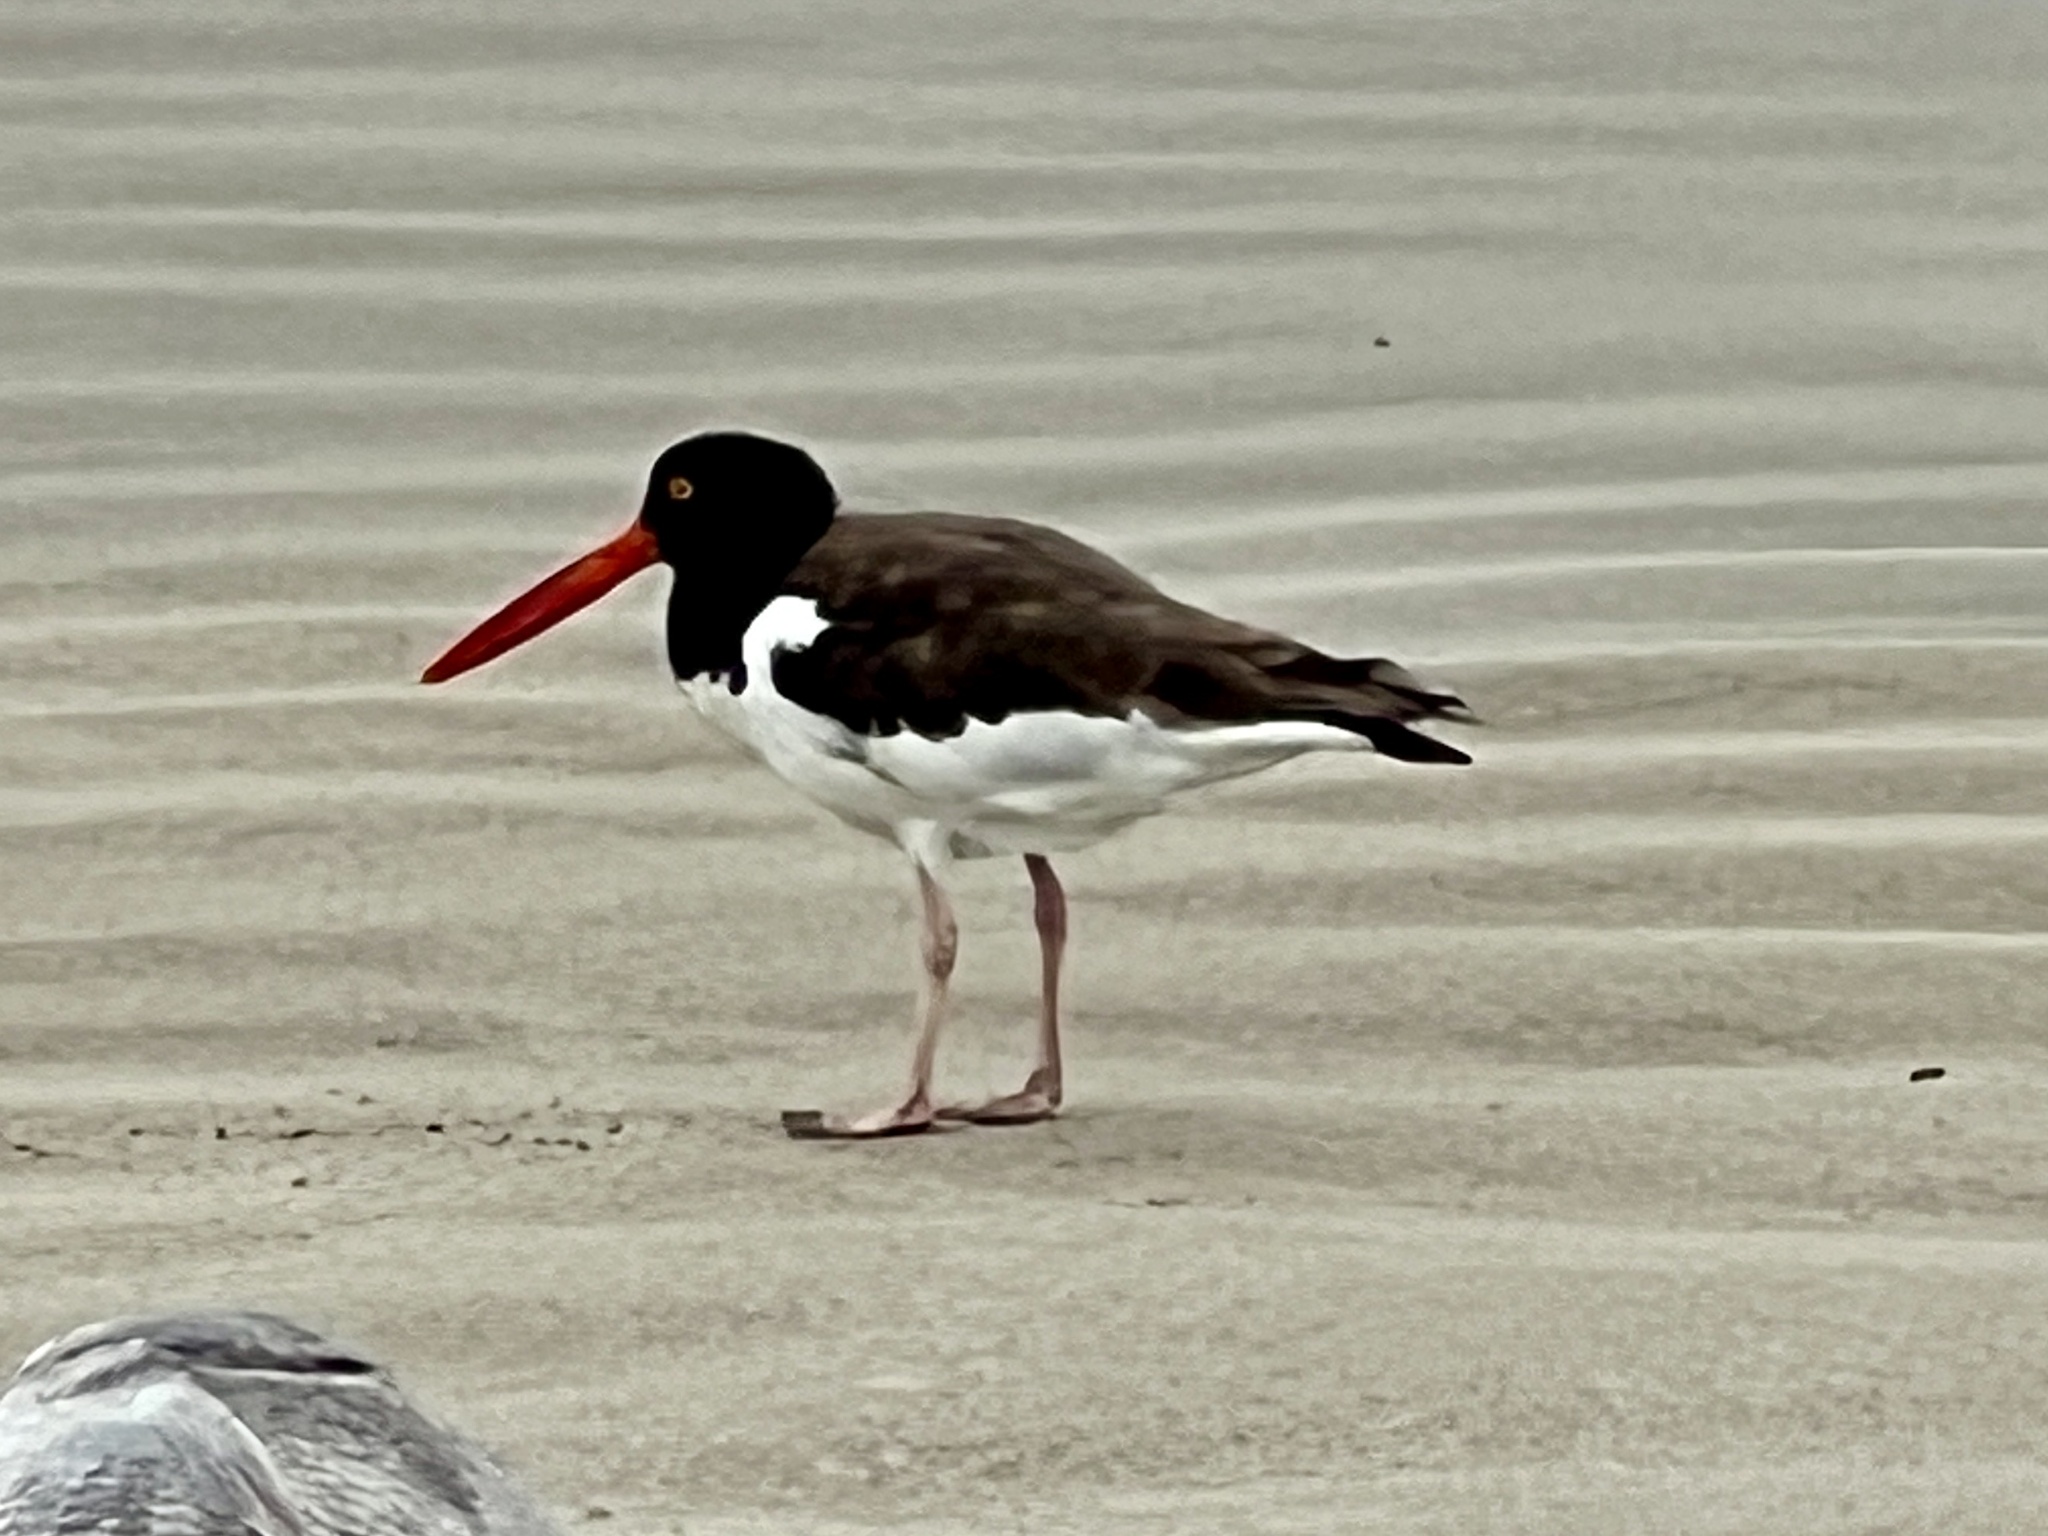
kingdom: Animalia
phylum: Chordata
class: Aves
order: Charadriiformes
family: Haematopodidae
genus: Haematopus
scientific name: Haematopus palliatus
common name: American oystercatcher
